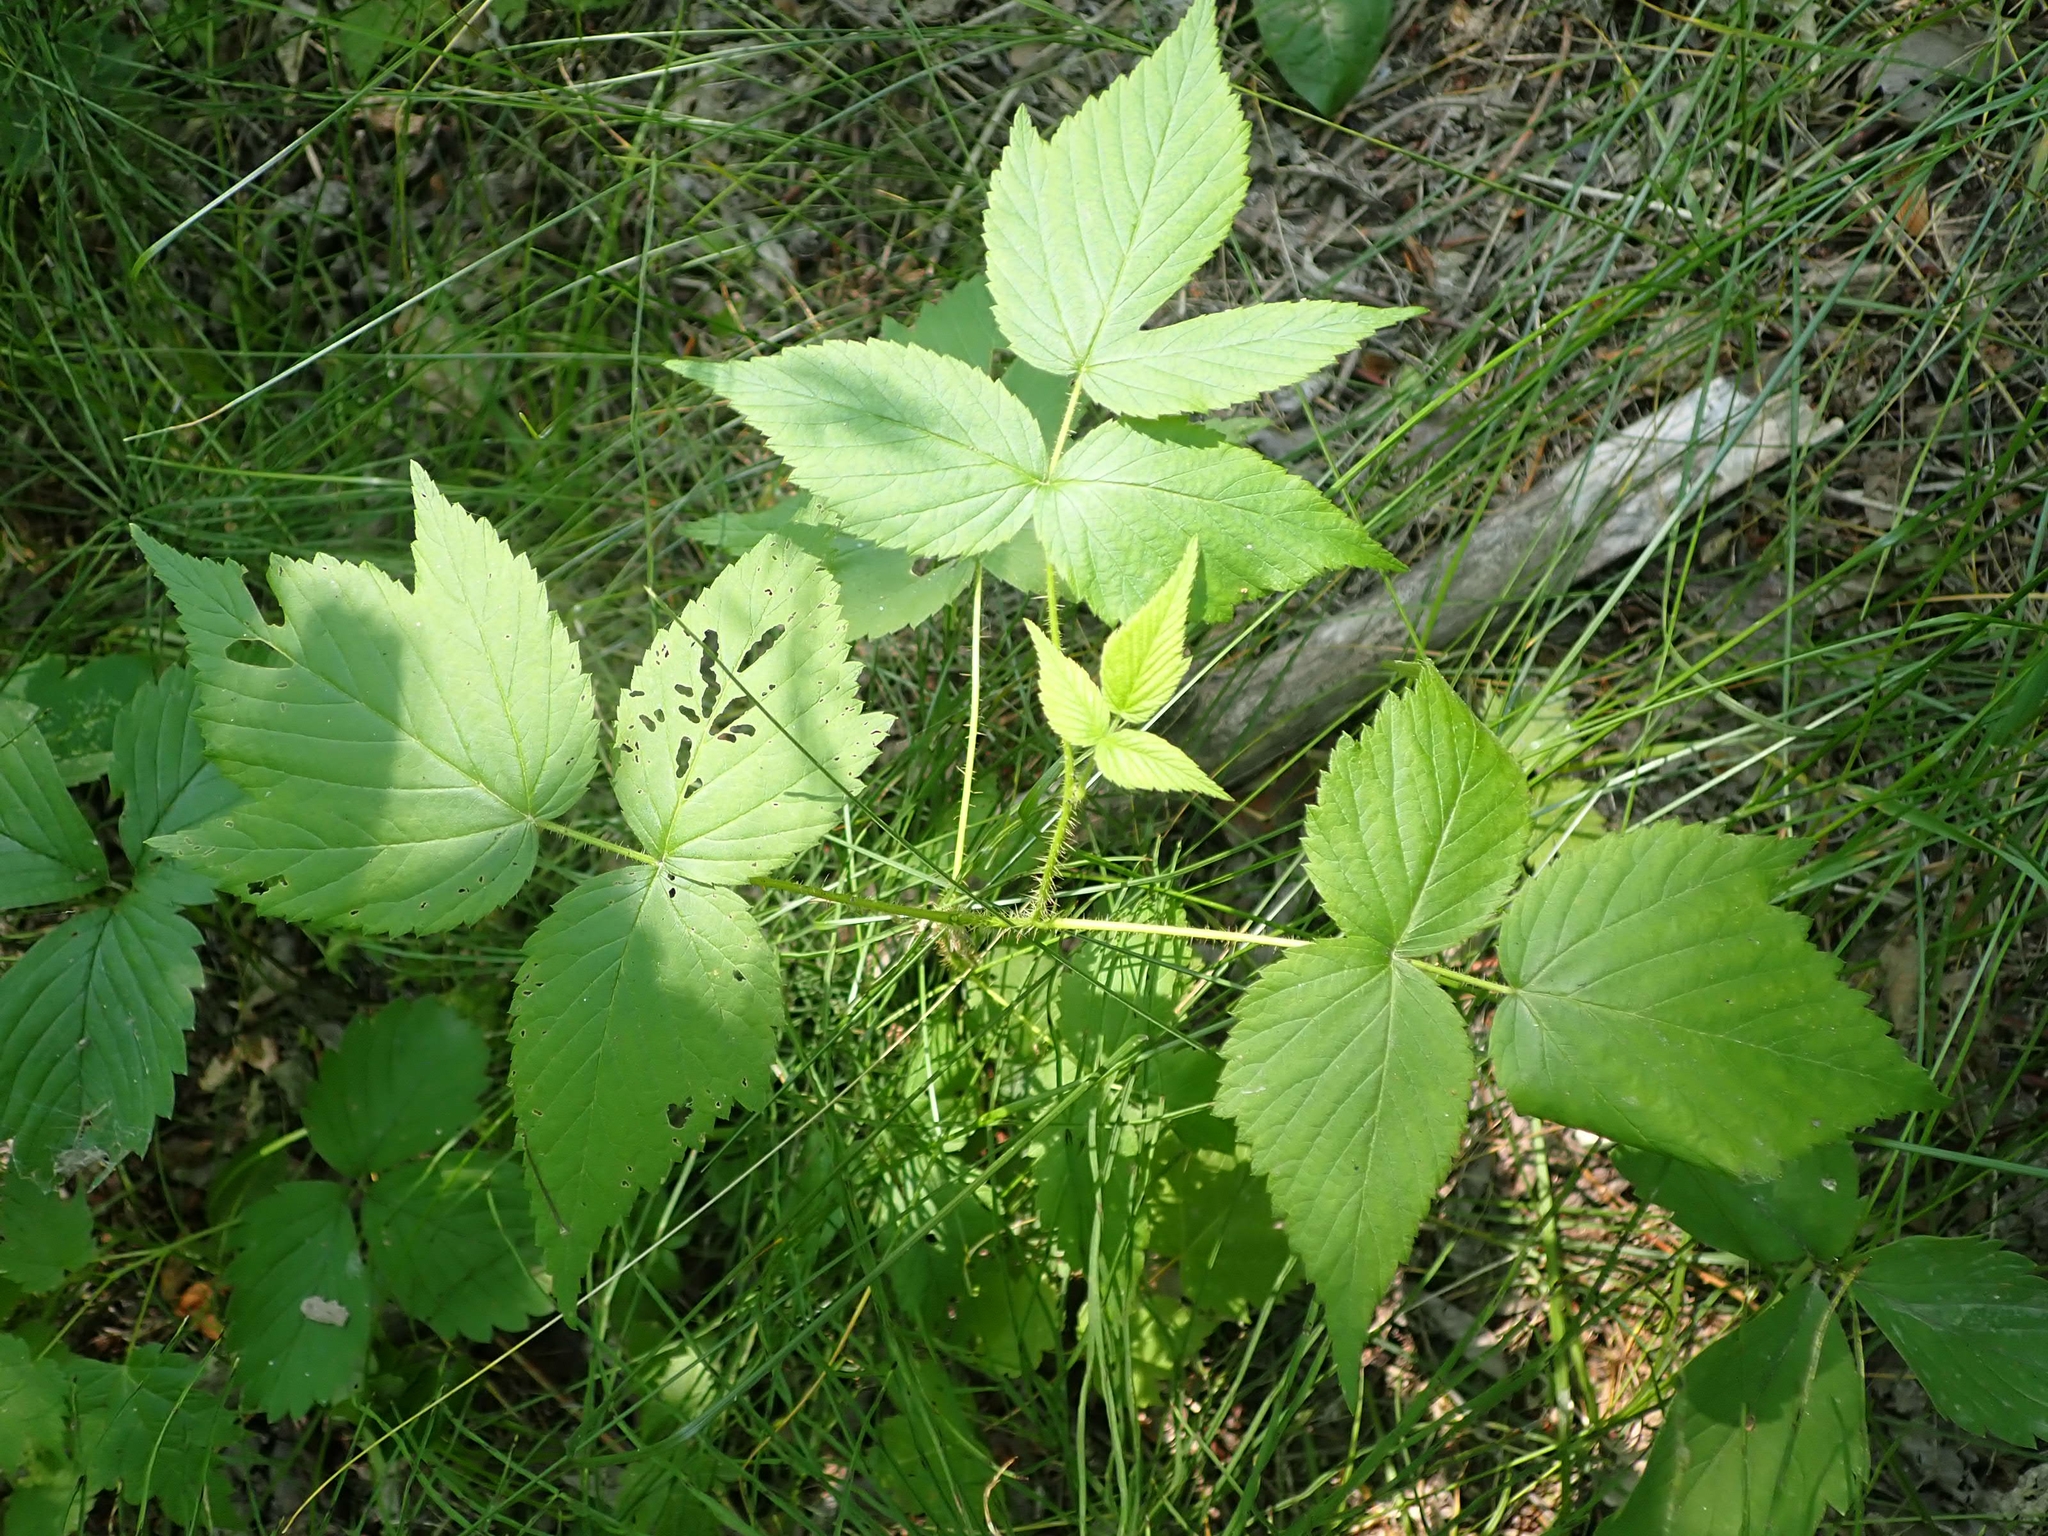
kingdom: Plantae
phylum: Tracheophyta
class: Magnoliopsida
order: Rosales
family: Rosaceae
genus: Rubus
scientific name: Rubus idaeus
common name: Raspberry
